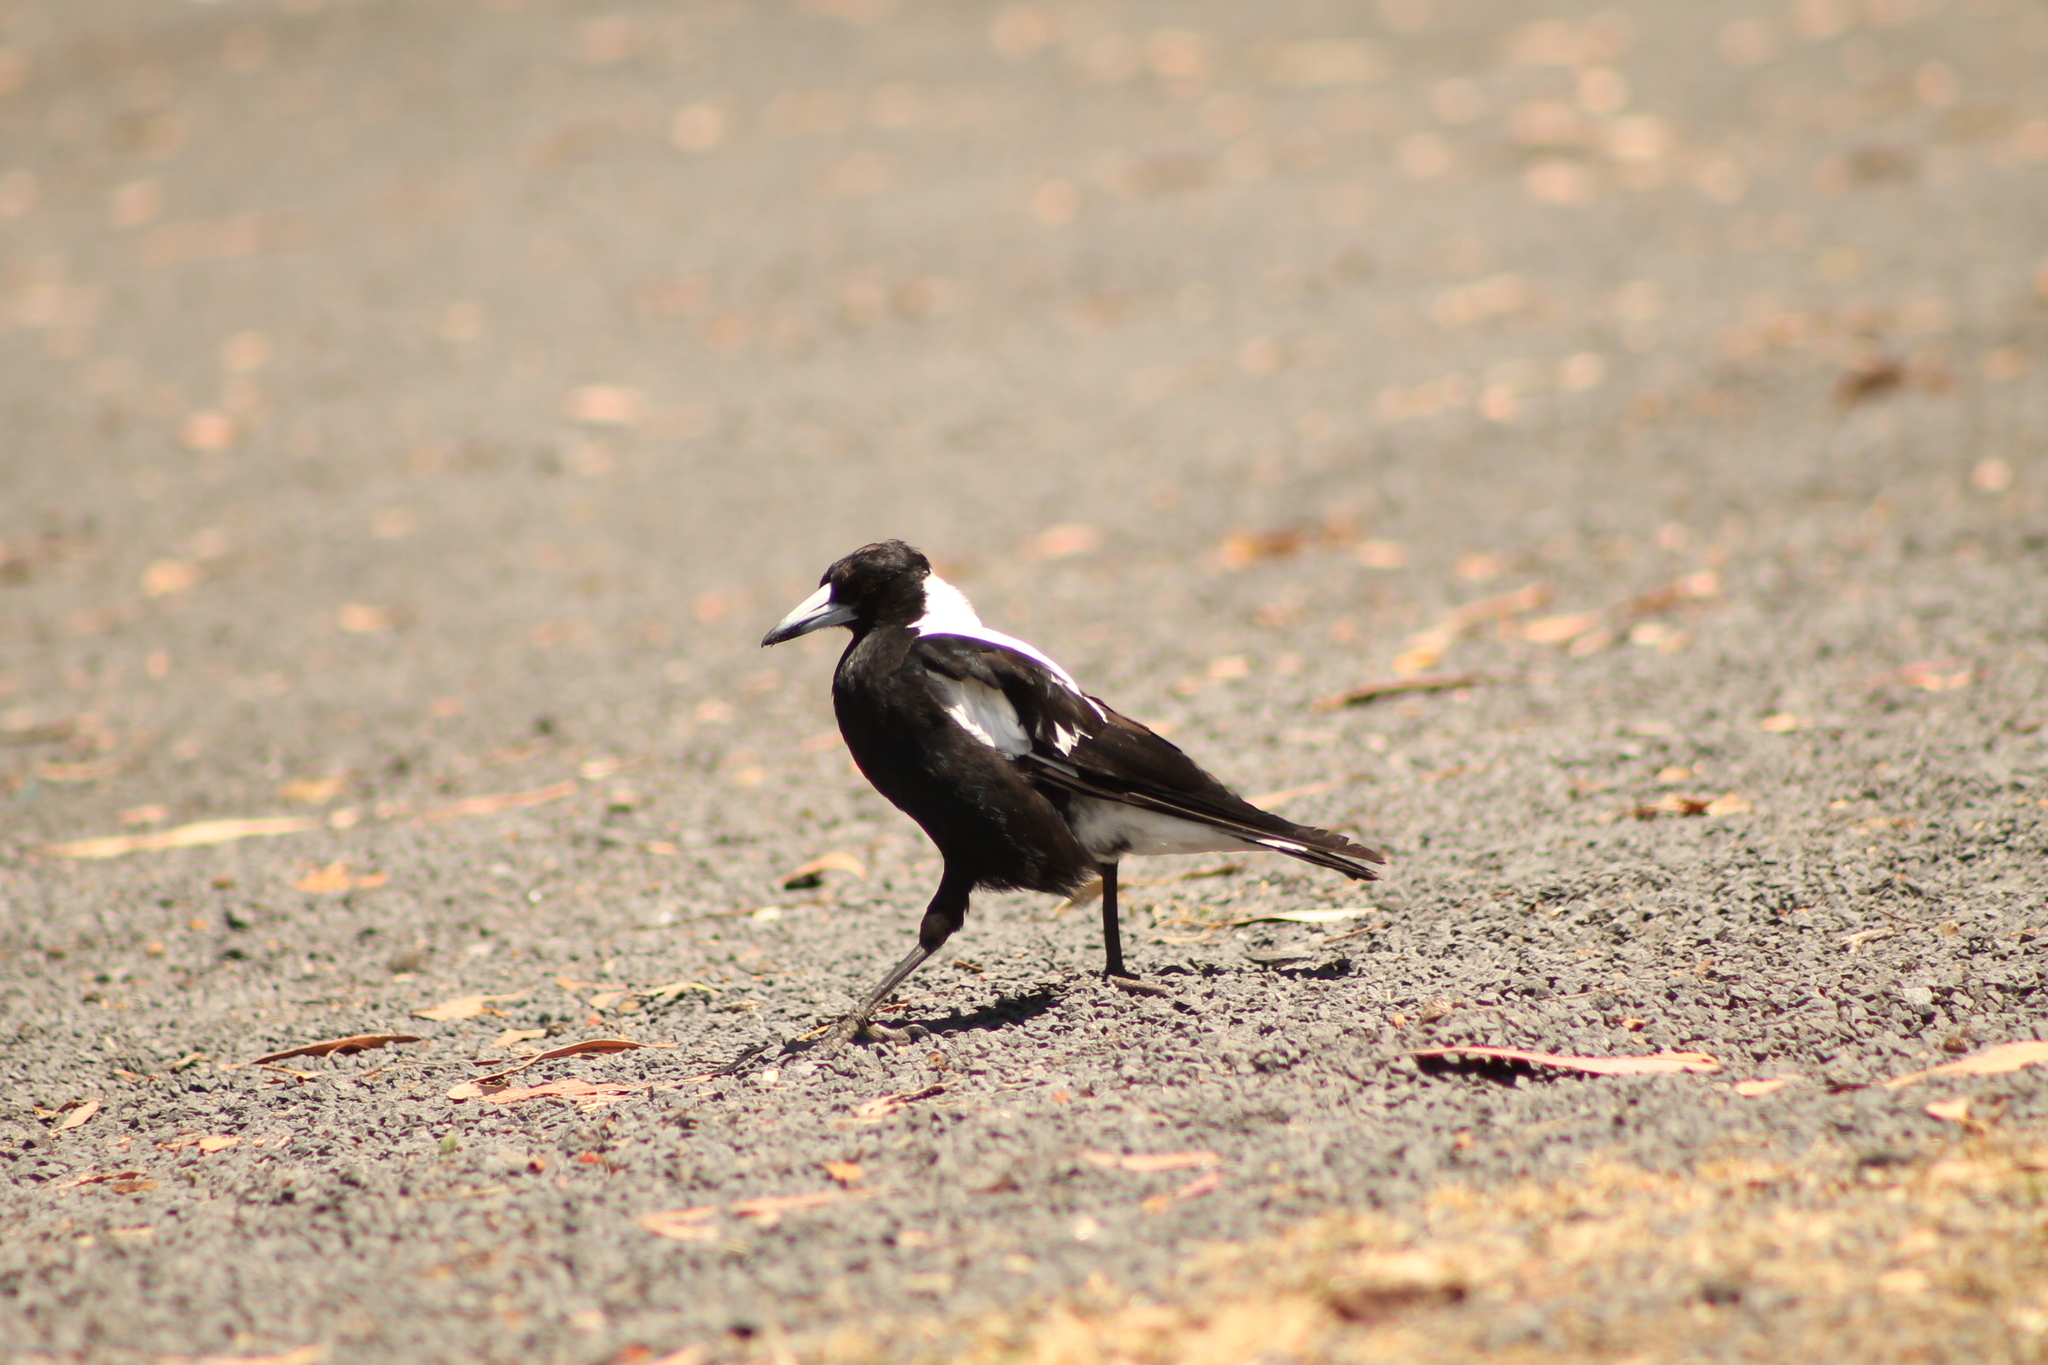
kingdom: Animalia
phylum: Chordata
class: Aves
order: Passeriformes
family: Cracticidae
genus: Gymnorhina
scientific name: Gymnorhina tibicen
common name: Australian magpie
